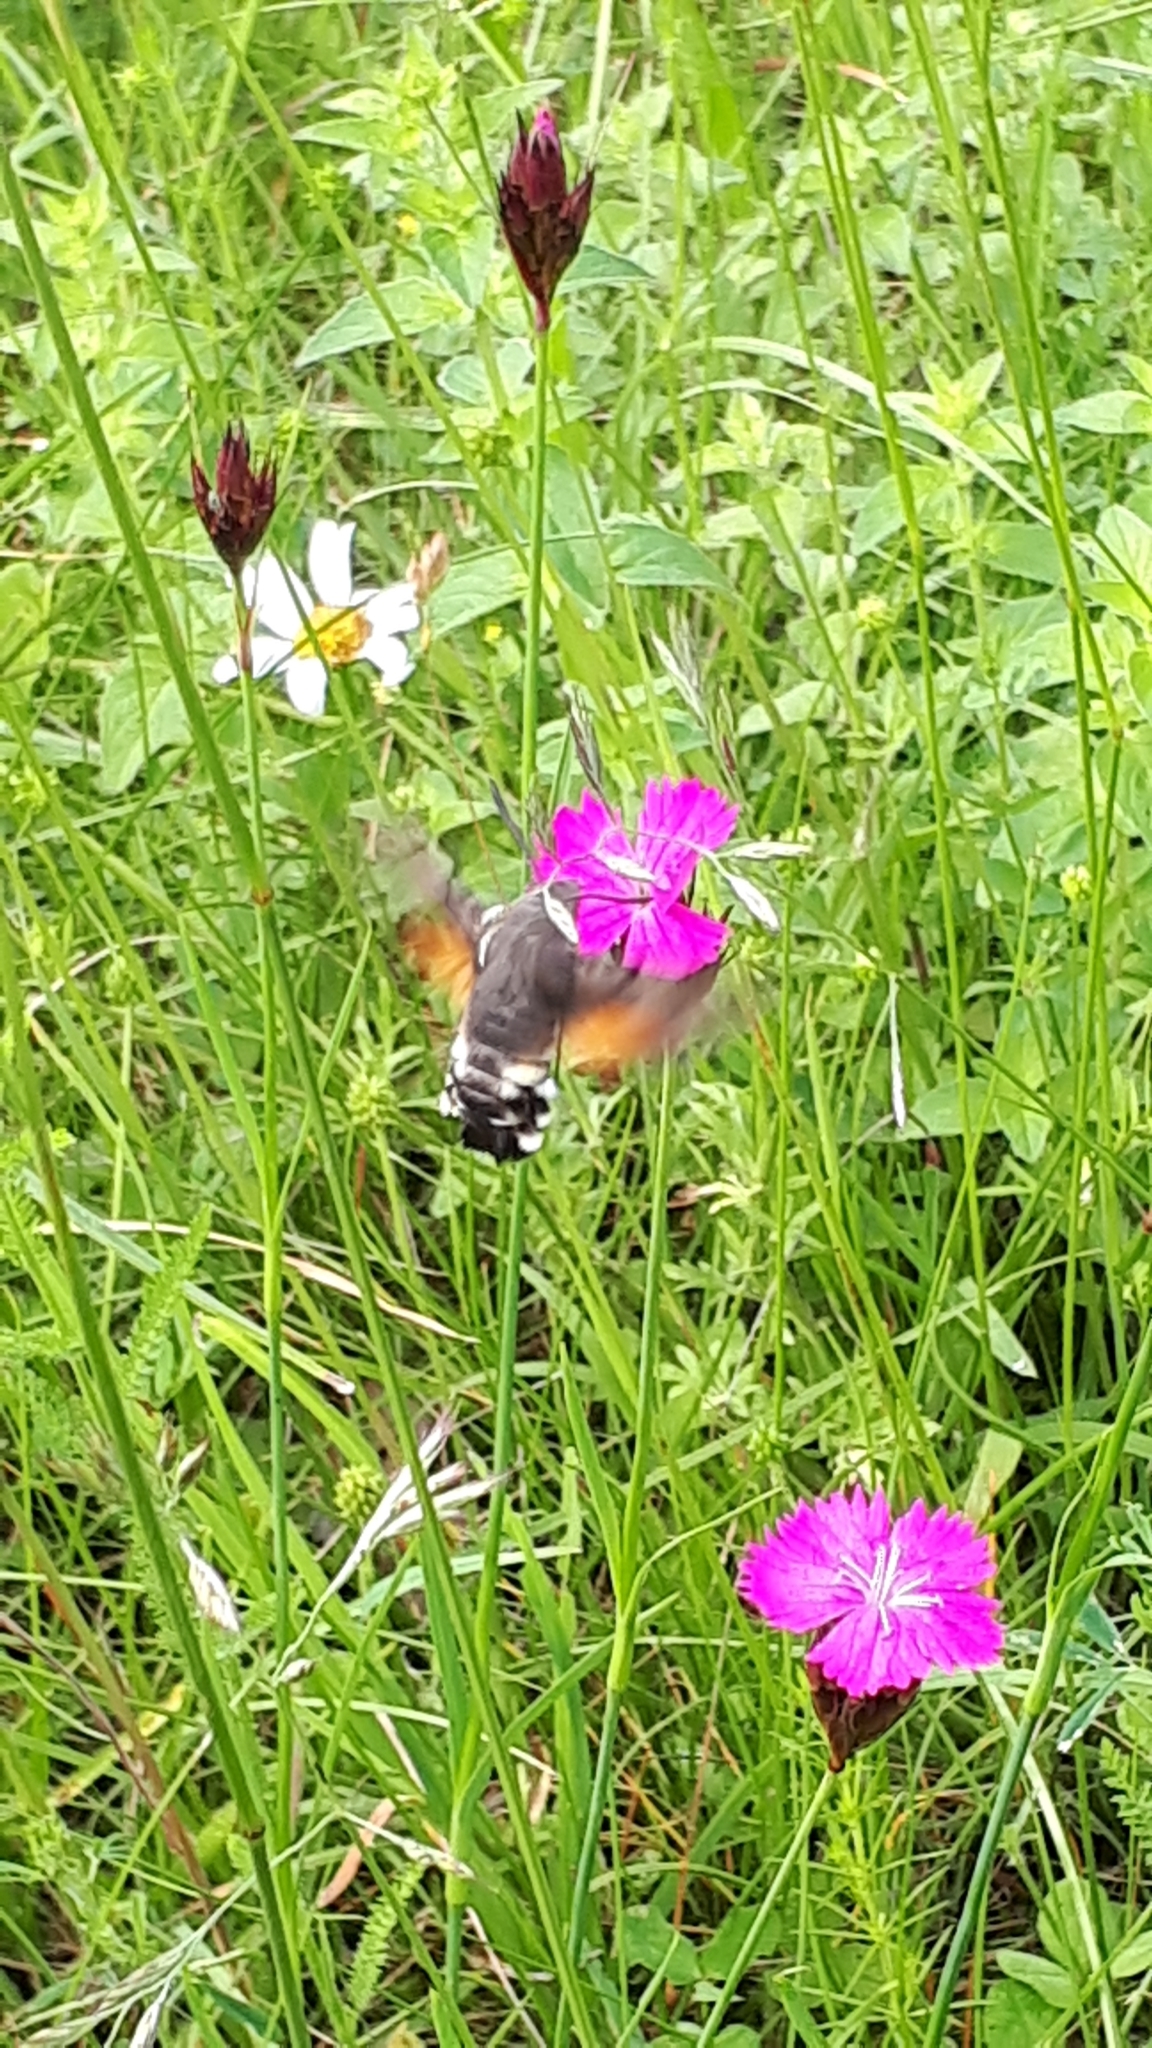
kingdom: Animalia
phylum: Arthropoda
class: Insecta
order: Lepidoptera
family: Sphingidae
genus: Macroglossum
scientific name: Macroglossum stellatarum
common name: Humming-bird hawk-moth
